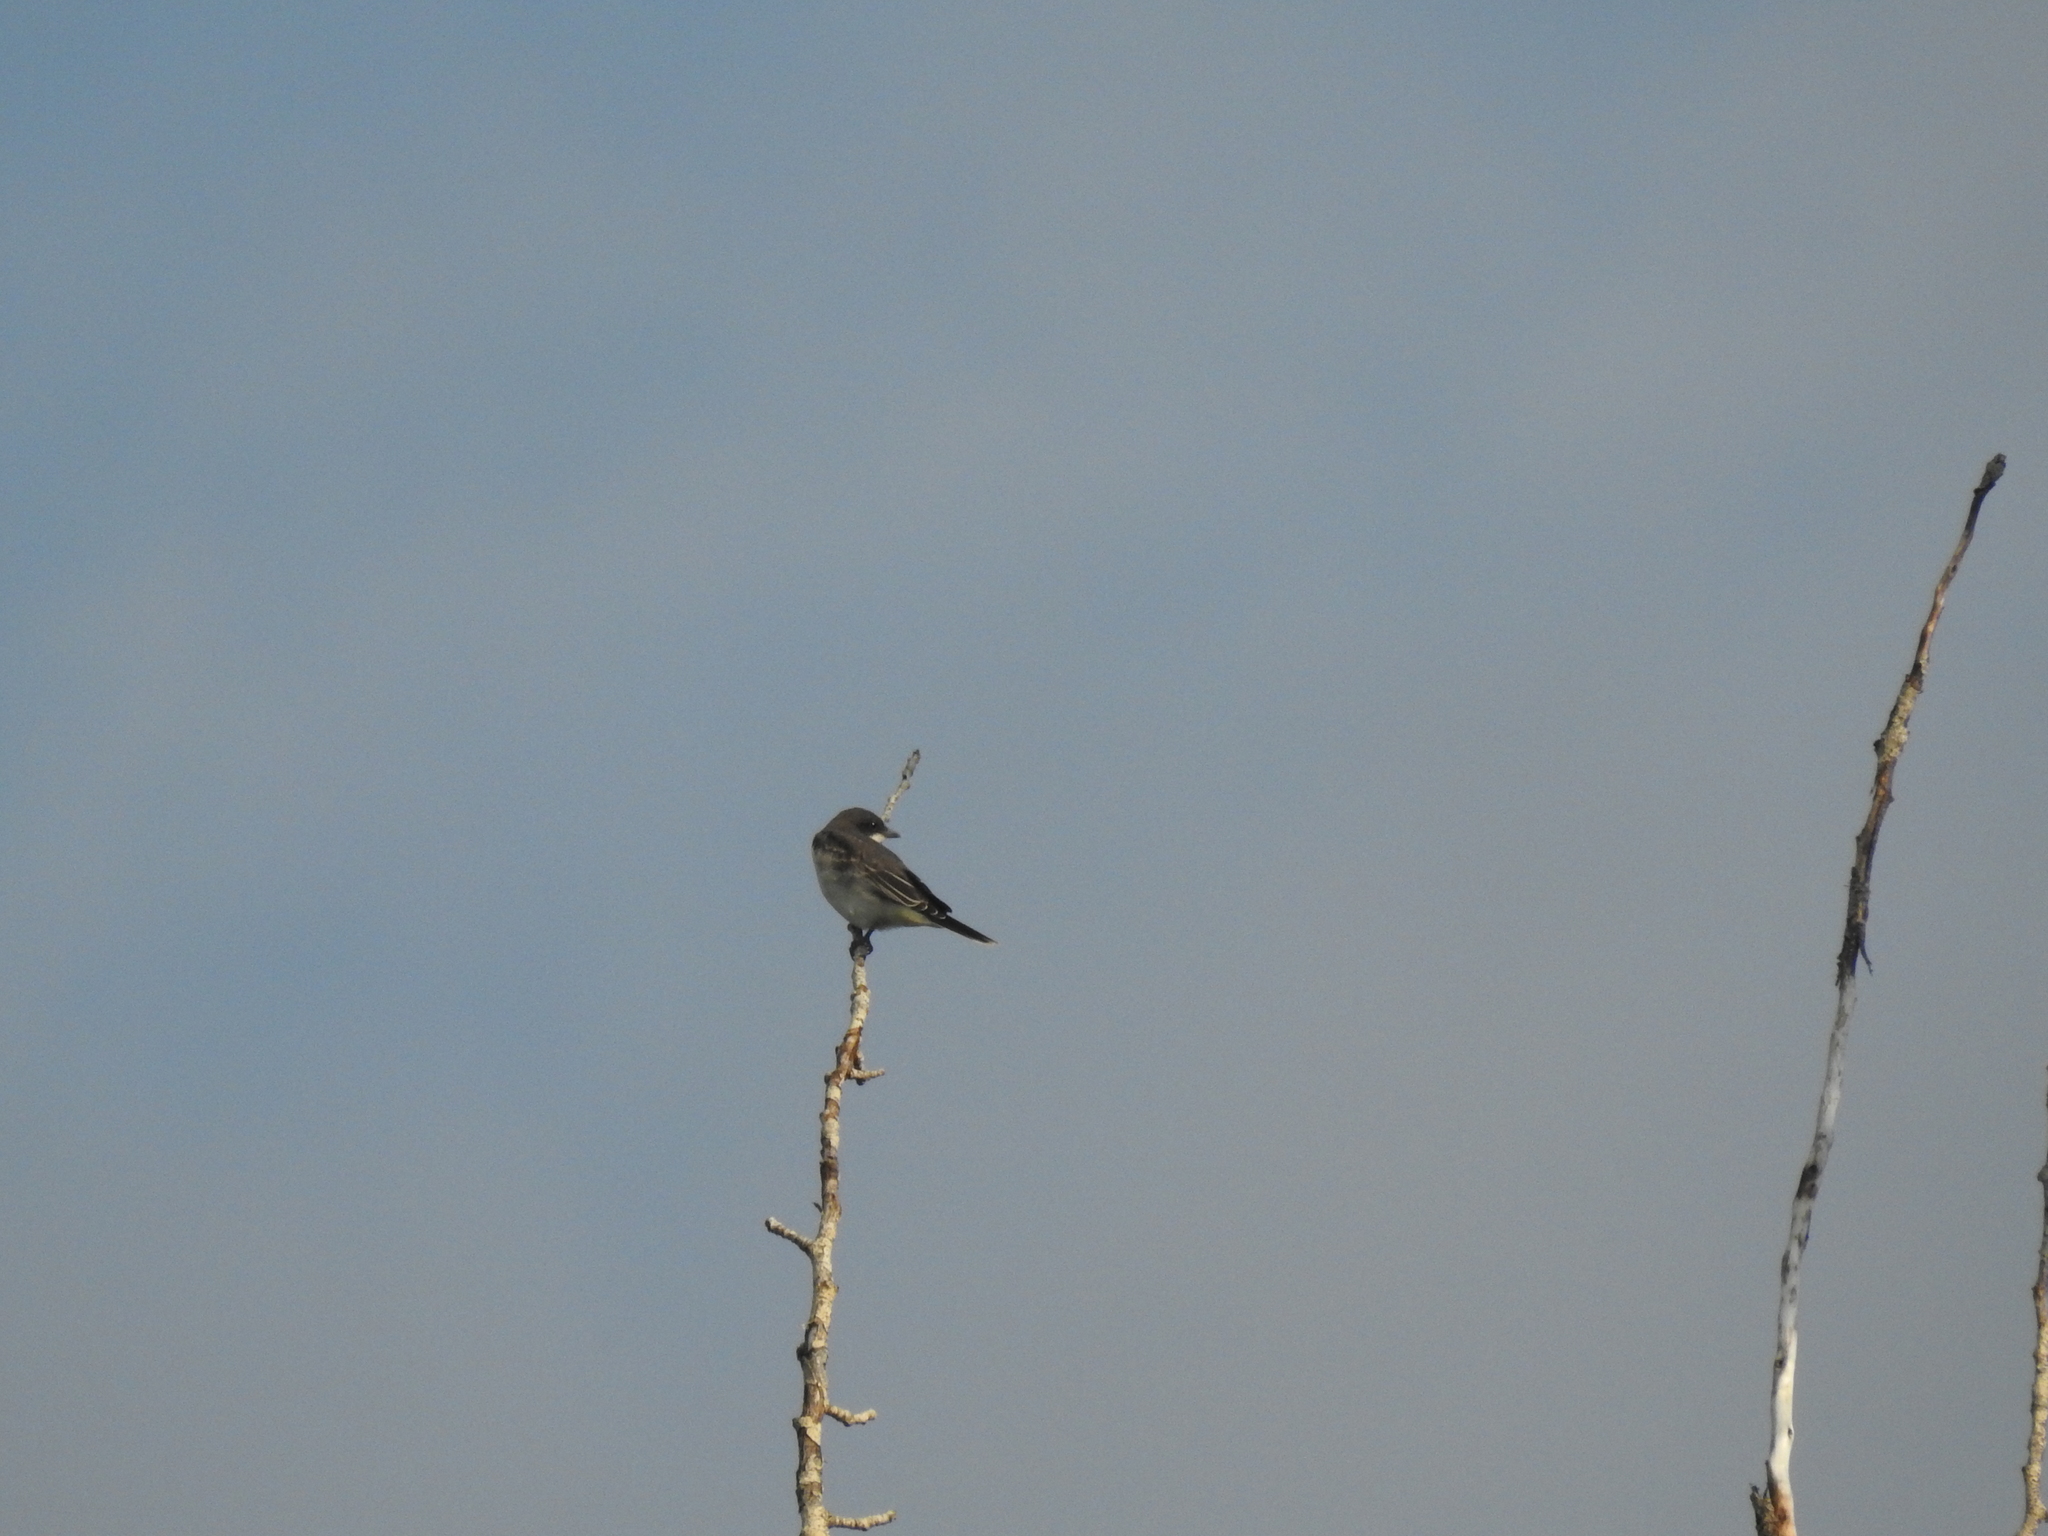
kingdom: Animalia
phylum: Chordata
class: Aves
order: Passeriformes
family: Tyrannidae
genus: Tyrannus
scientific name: Tyrannus tyrannus
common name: Eastern kingbird
